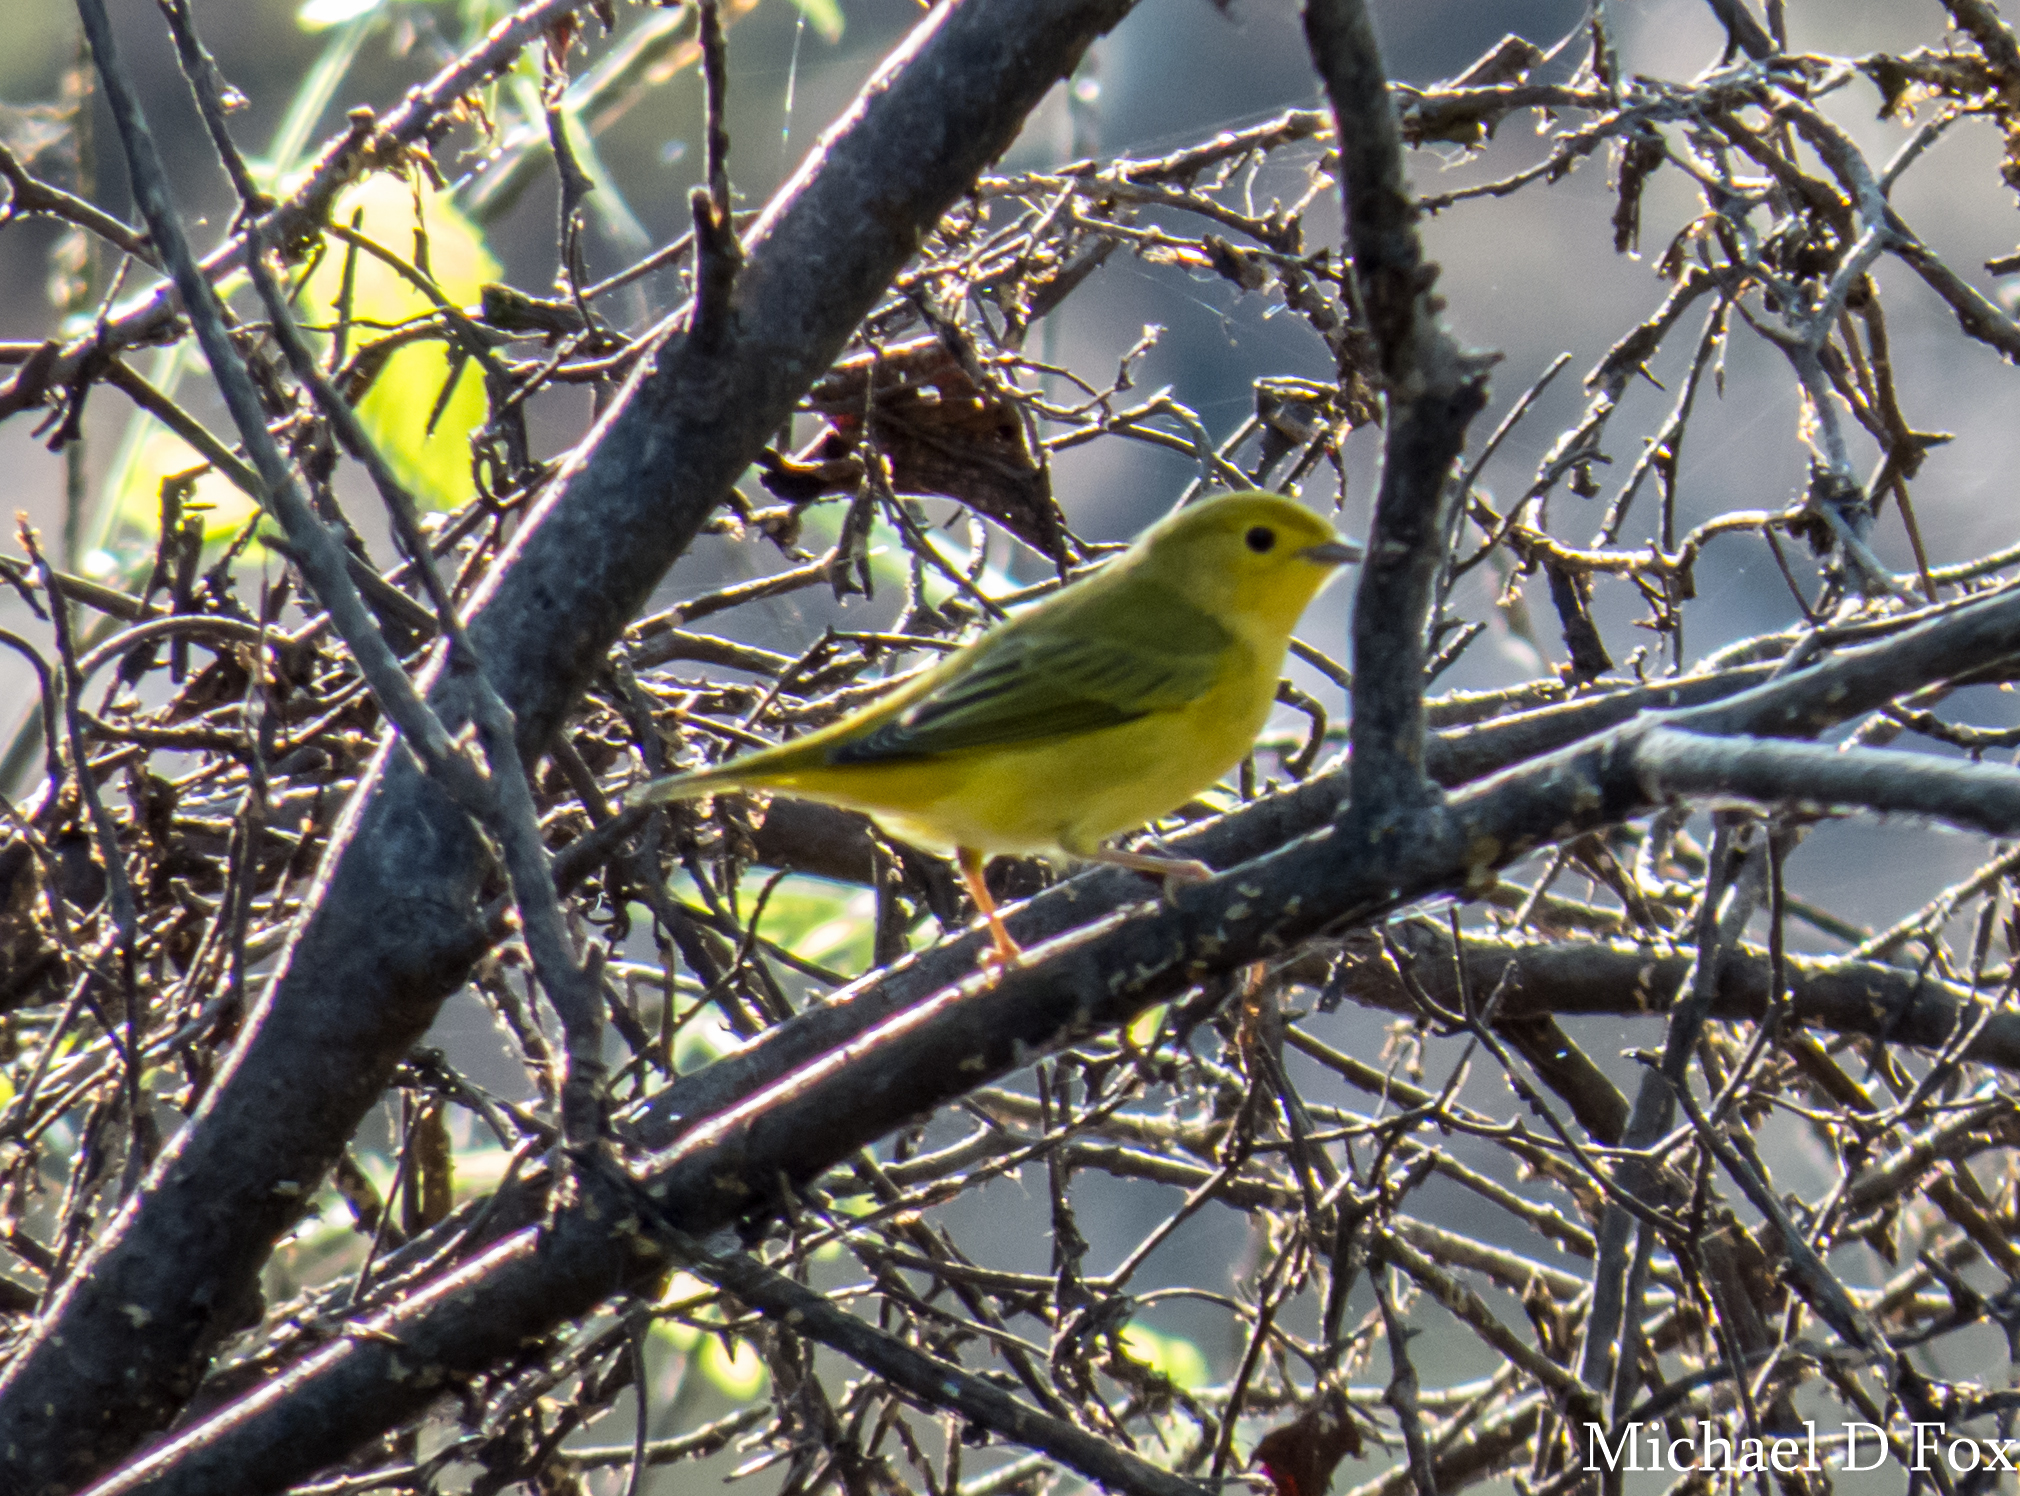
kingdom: Animalia
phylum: Chordata
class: Aves
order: Passeriformes
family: Parulidae
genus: Setophaga
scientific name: Setophaga petechia
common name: Yellow warbler
